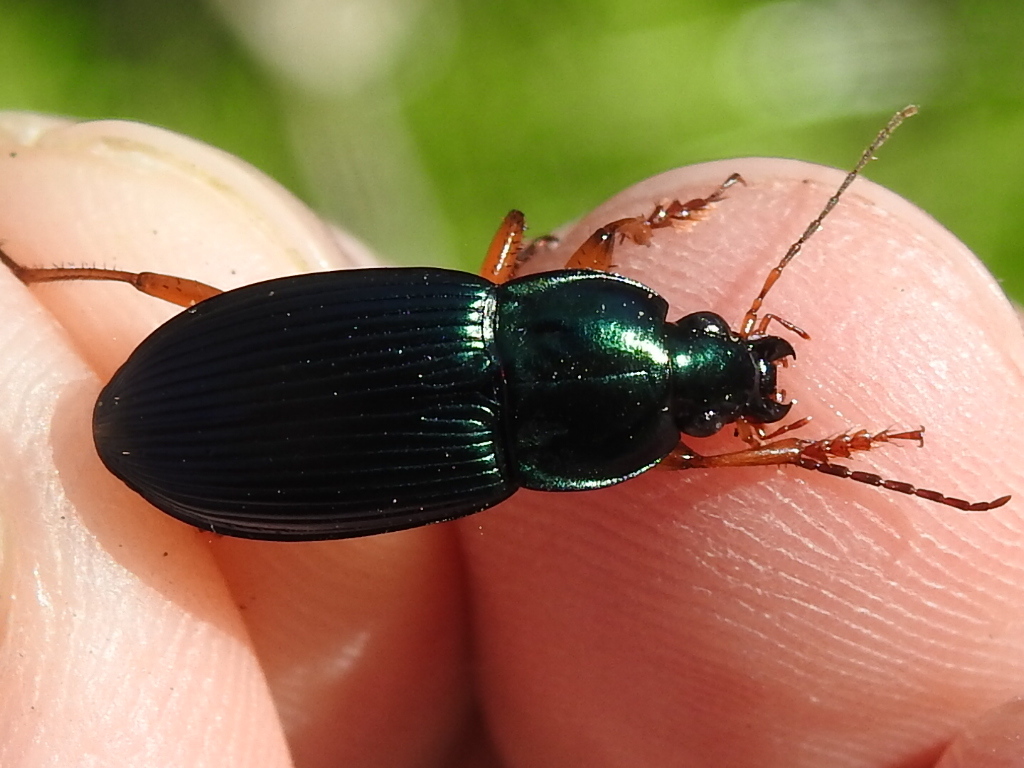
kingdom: Animalia
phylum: Arthropoda
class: Insecta
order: Coleoptera
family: Carabidae
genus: Poecilus
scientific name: Poecilus lucublandus
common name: Woodland ground beetle
